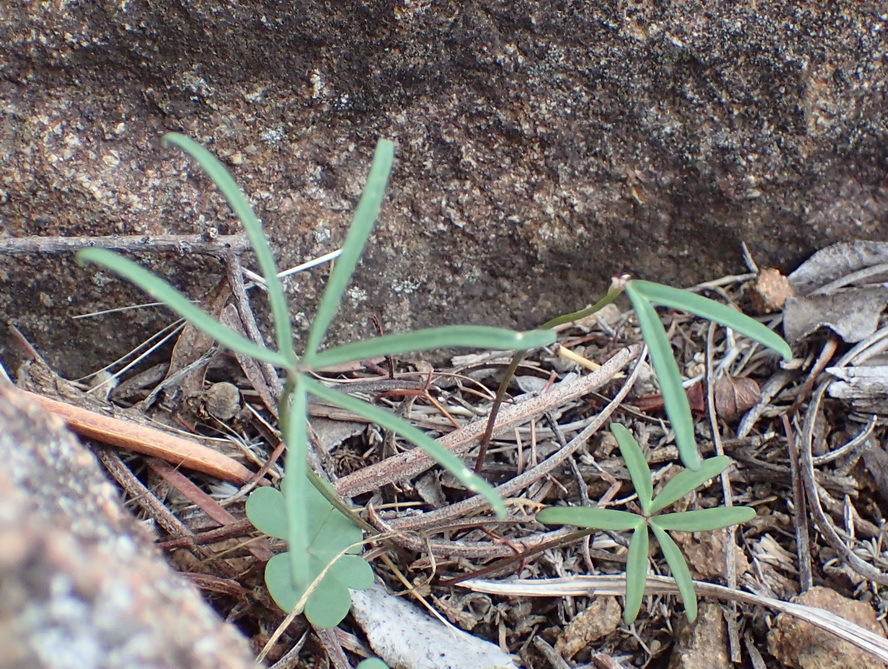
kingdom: Plantae
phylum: Tracheophyta
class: Magnoliopsida
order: Oxalidales
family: Oxalidaceae
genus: Oxalis
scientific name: Oxalis smithiana
